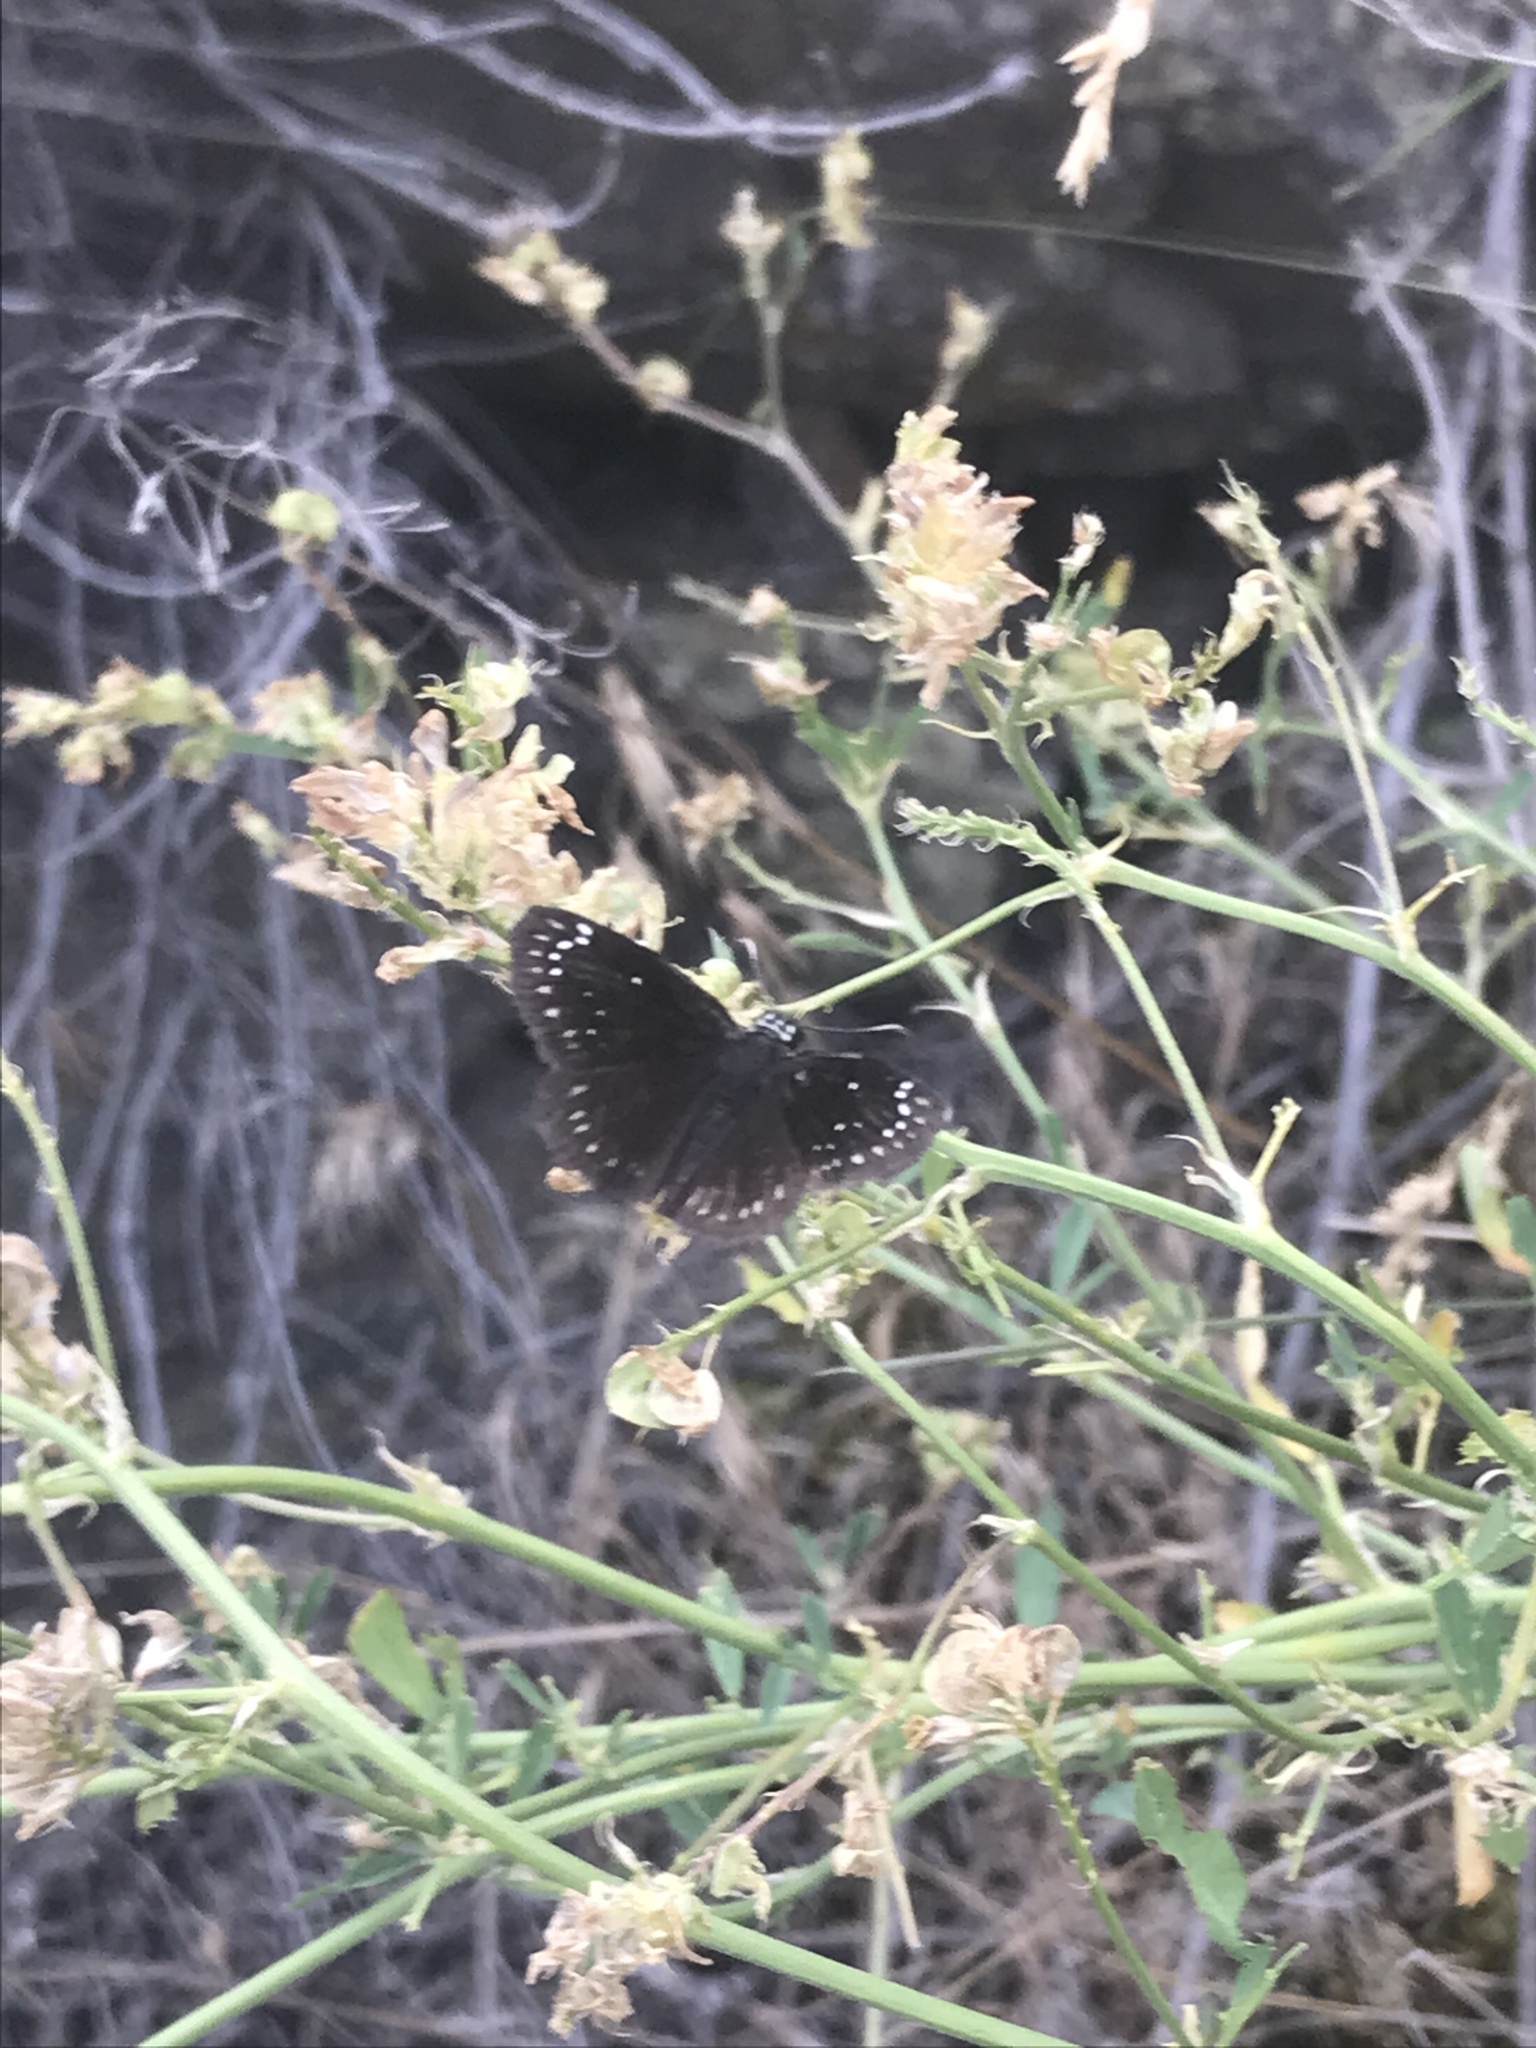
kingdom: Animalia
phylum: Arthropoda
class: Insecta
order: Lepidoptera
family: Hesperiidae
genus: Pholisora
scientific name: Pholisora catullus
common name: Common sootywing
